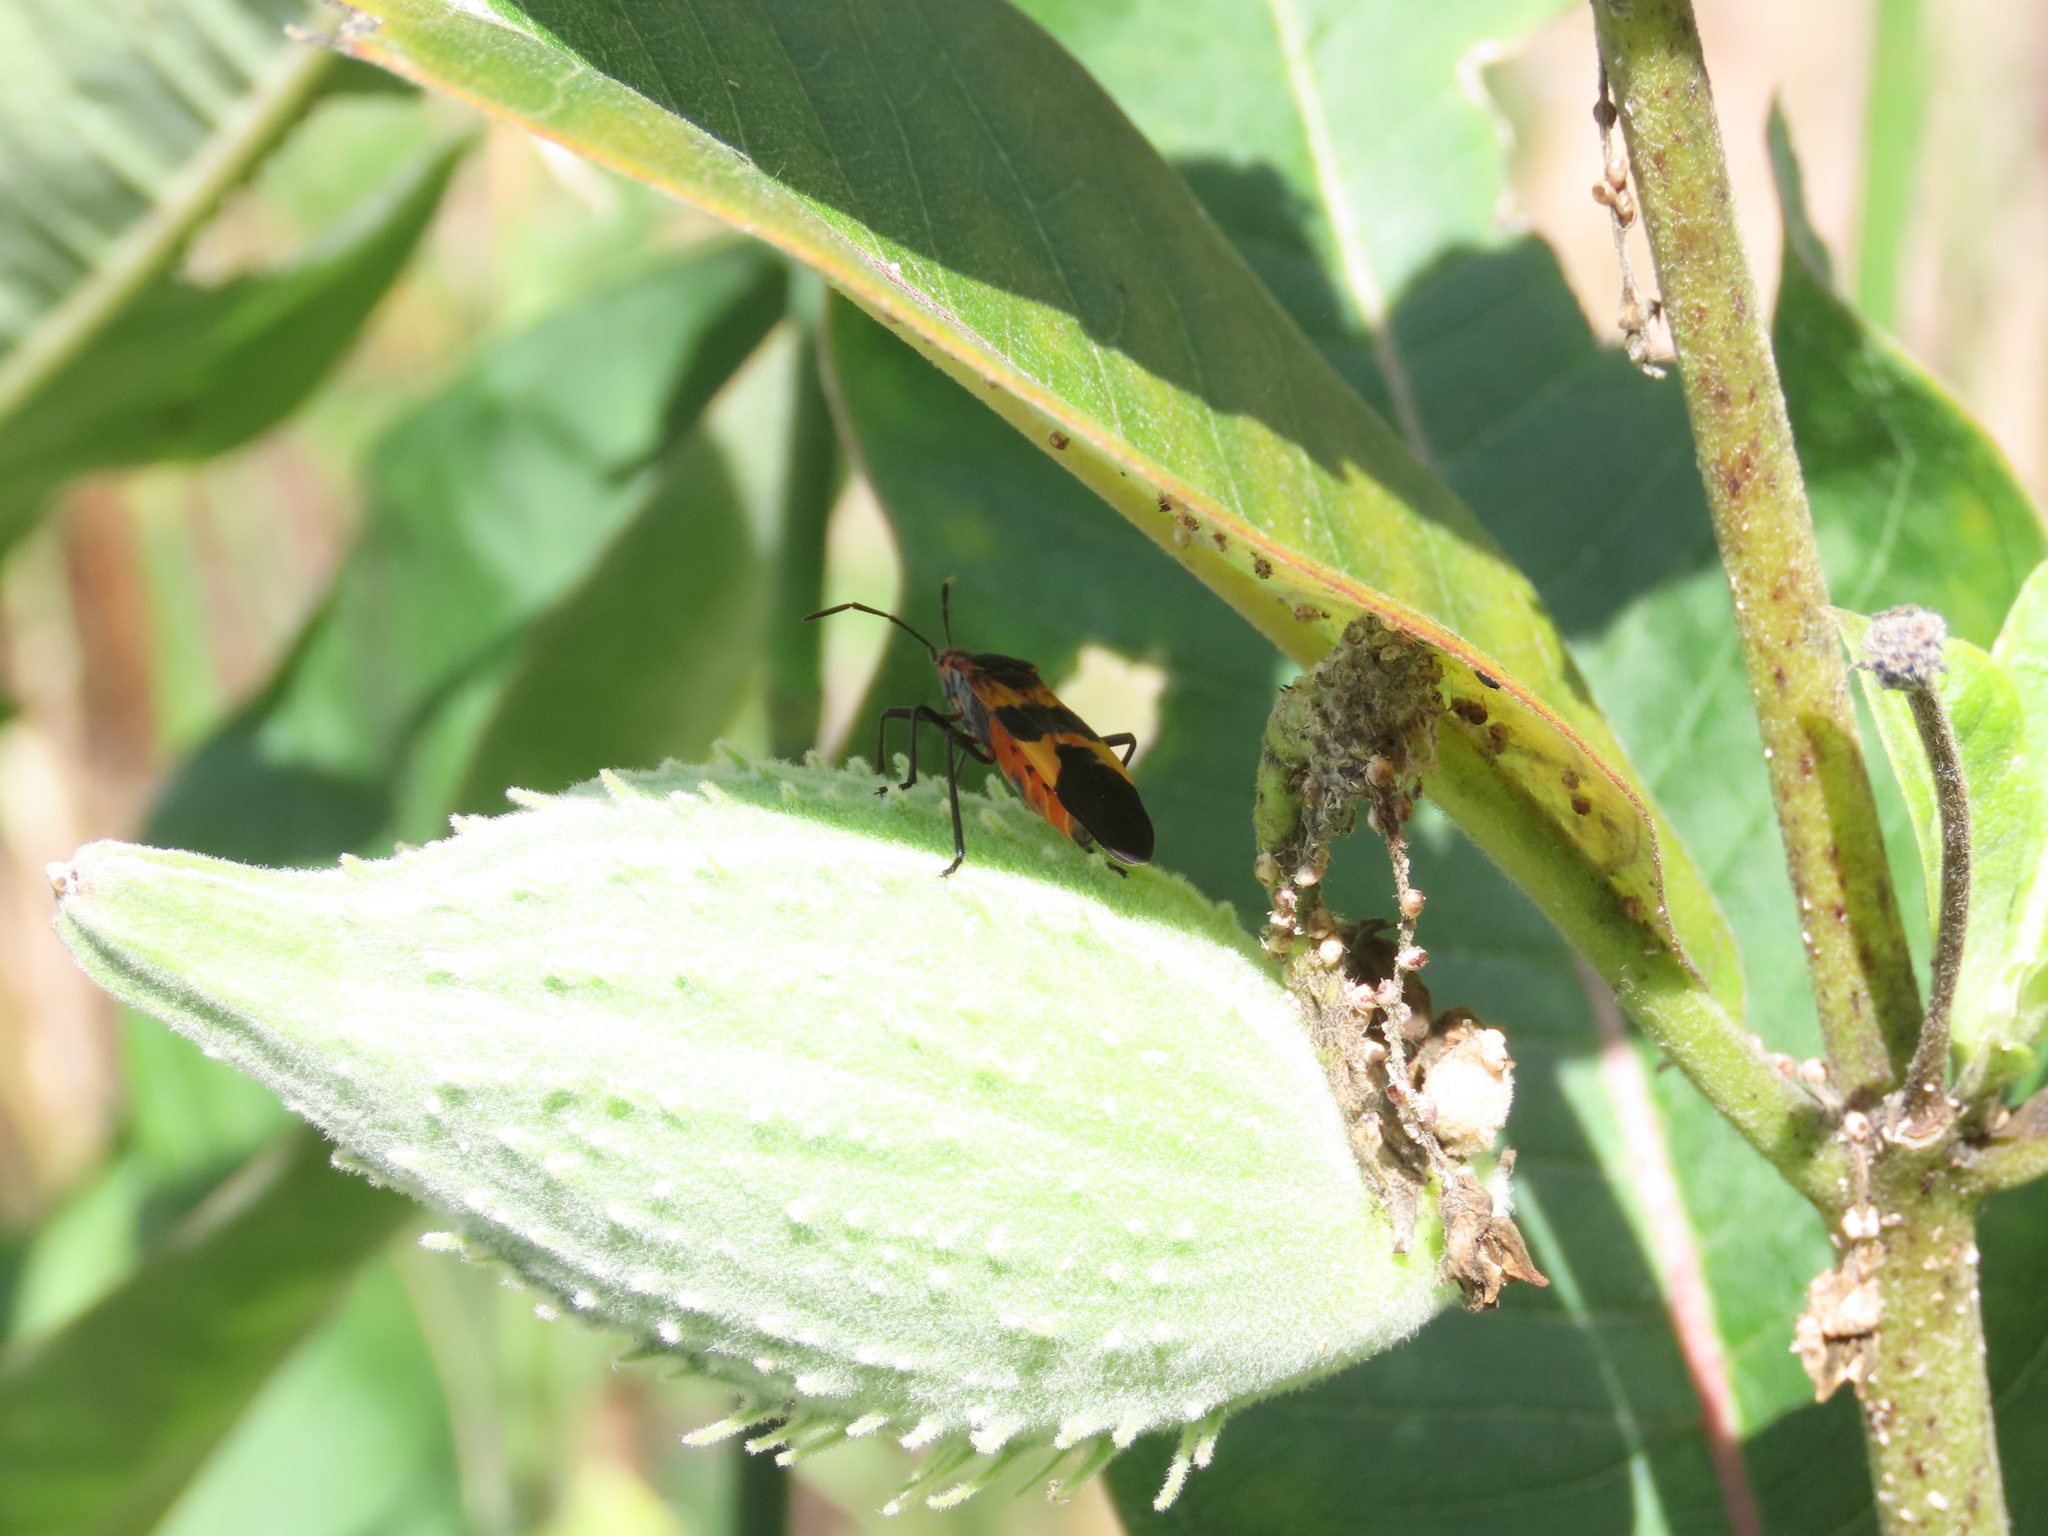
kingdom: Animalia
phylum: Arthropoda
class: Insecta
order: Hemiptera
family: Lygaeidae
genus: Oncopeltus
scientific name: Oncopeltus fasciatus
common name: Large milkweed bug
